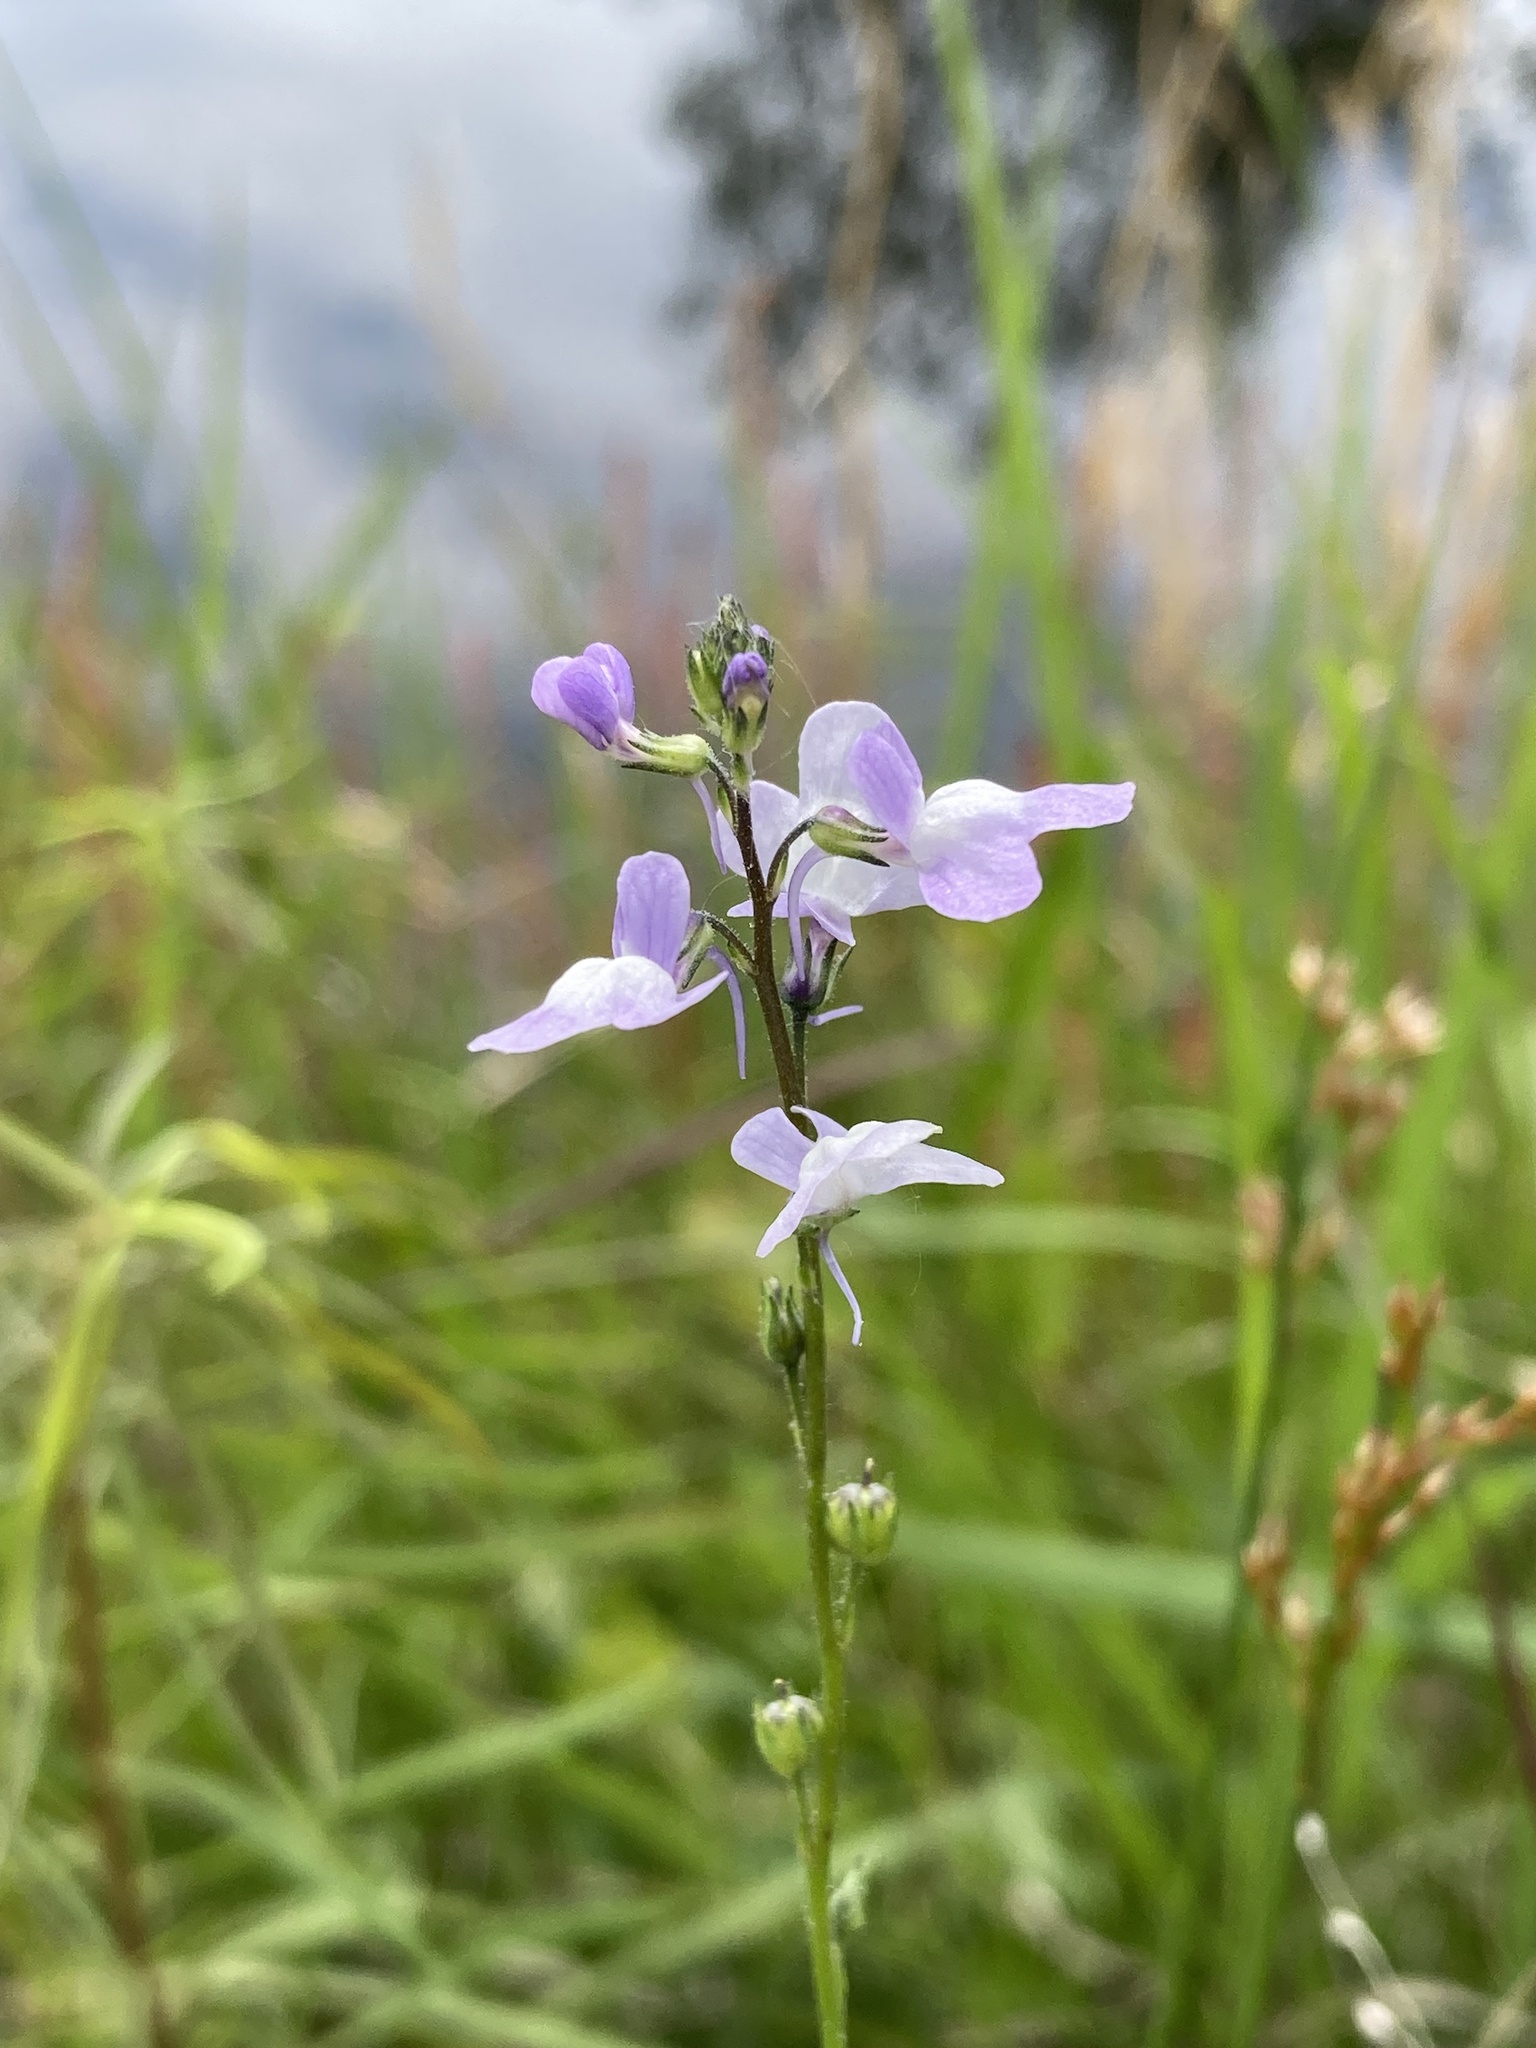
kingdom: Plantae
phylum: Tracheophyta
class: Magnoliopsida
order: Lamiales
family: Plantaginaceae
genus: Nuttallanthus
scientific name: Nuttallanthus canadensis
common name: Blue toadflax
